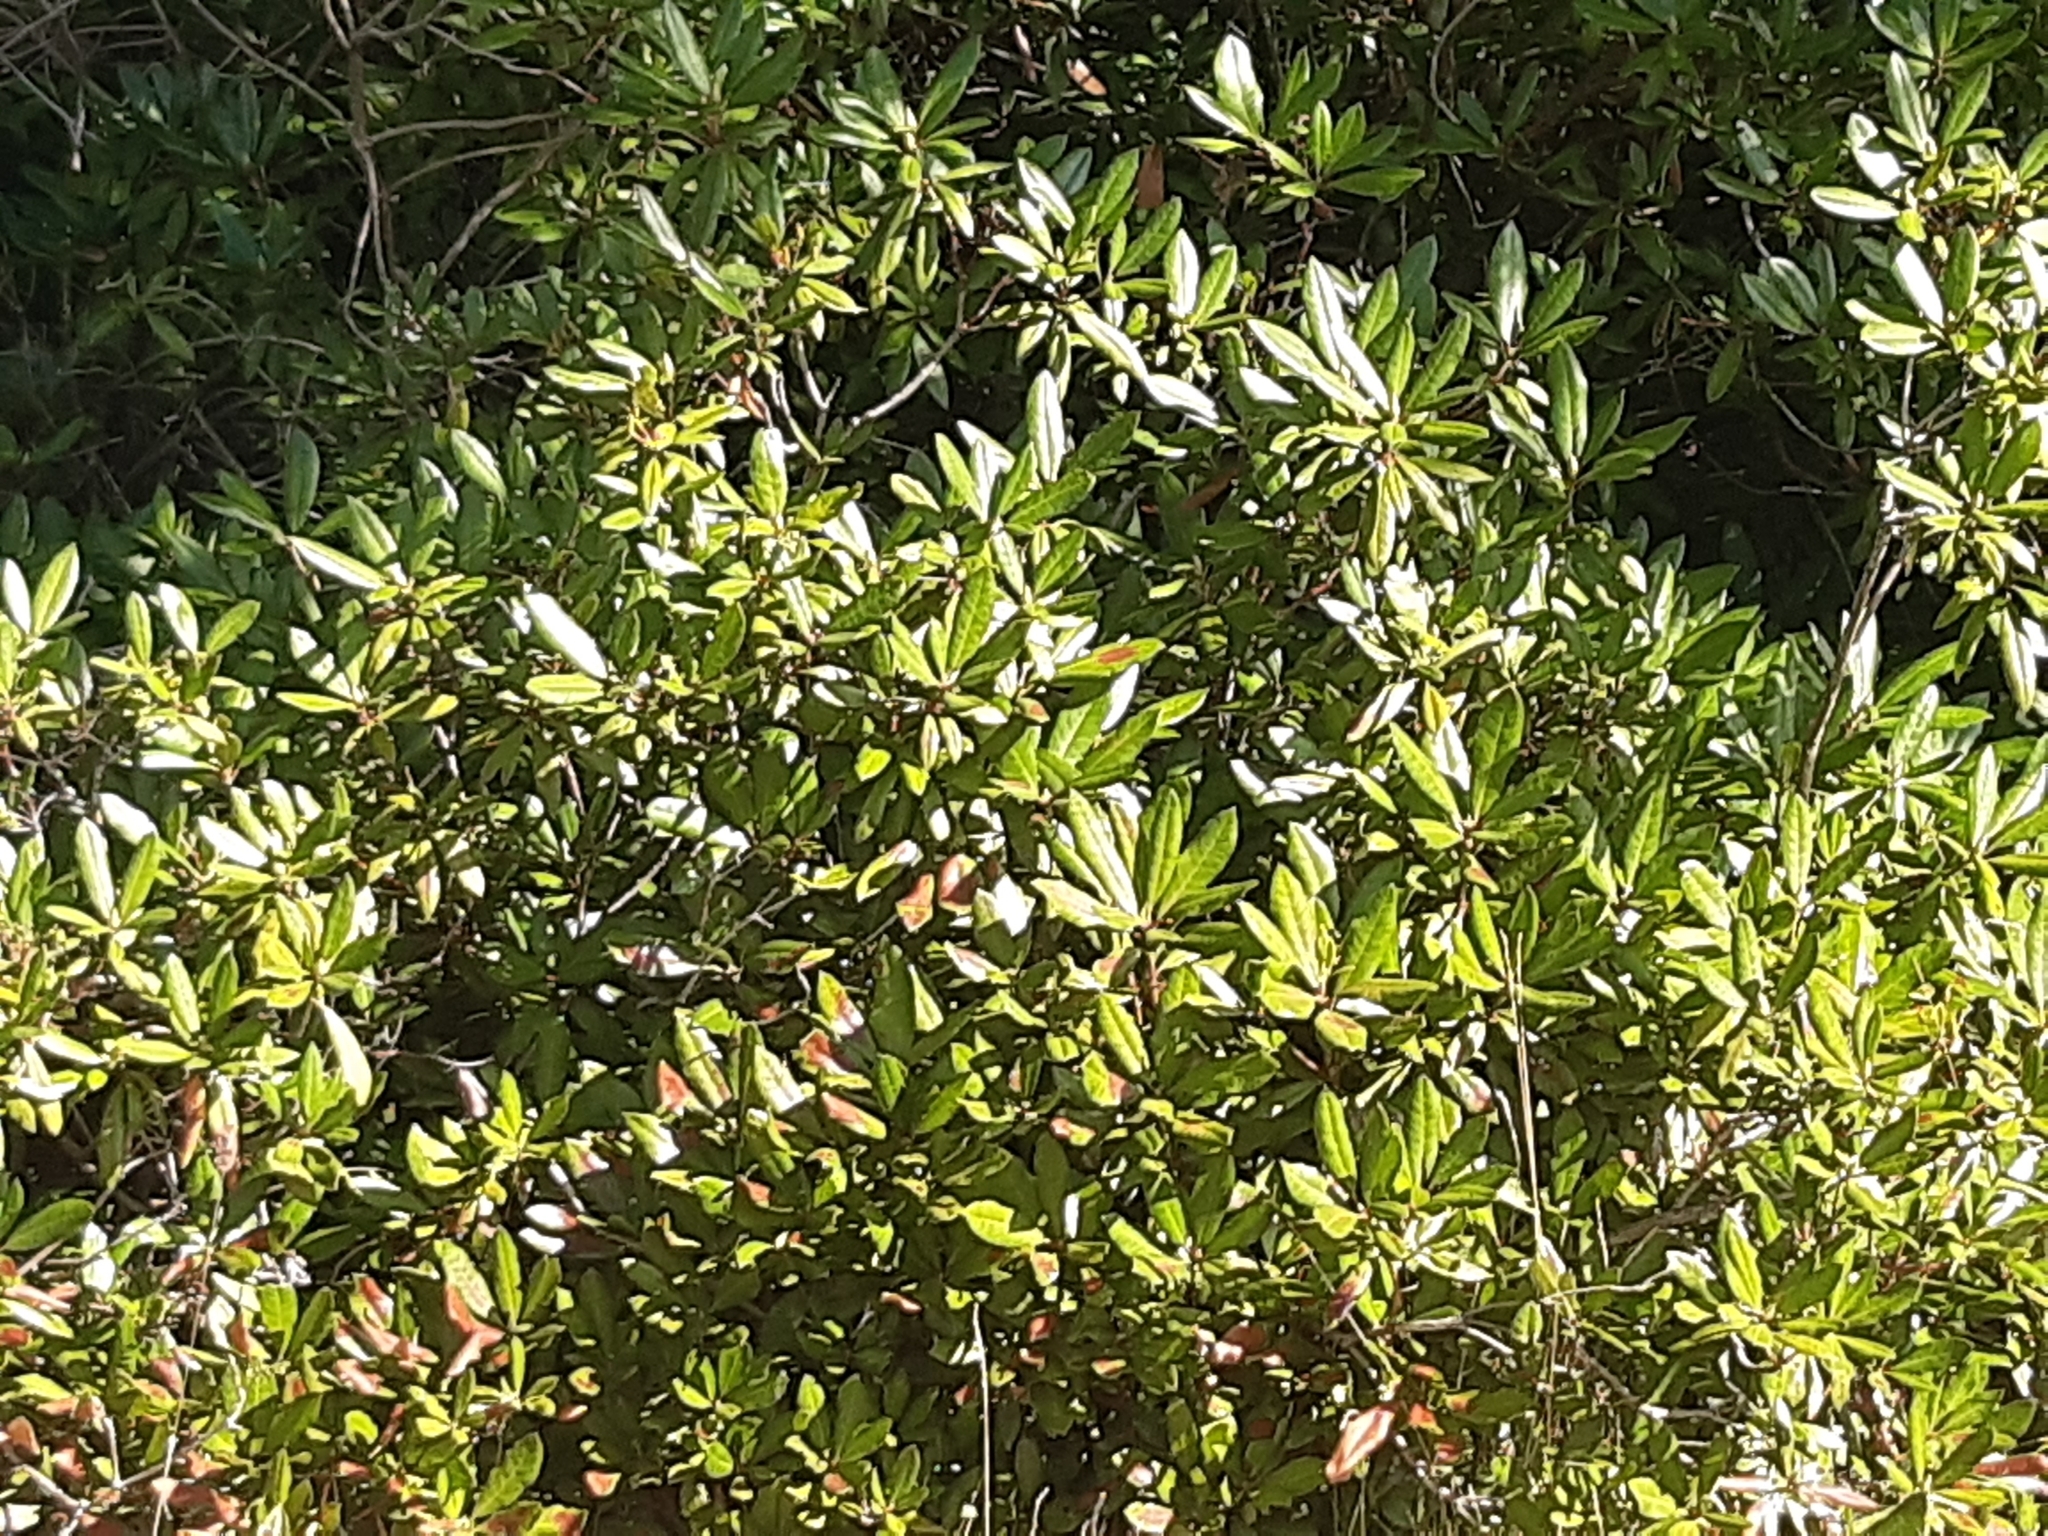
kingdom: Plantae
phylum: Tracheophyta
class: Magnoliopsida
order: Ericales
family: Ericaceae
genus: Rhododendron
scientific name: Rhododendron ponticum
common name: Rhododendron
